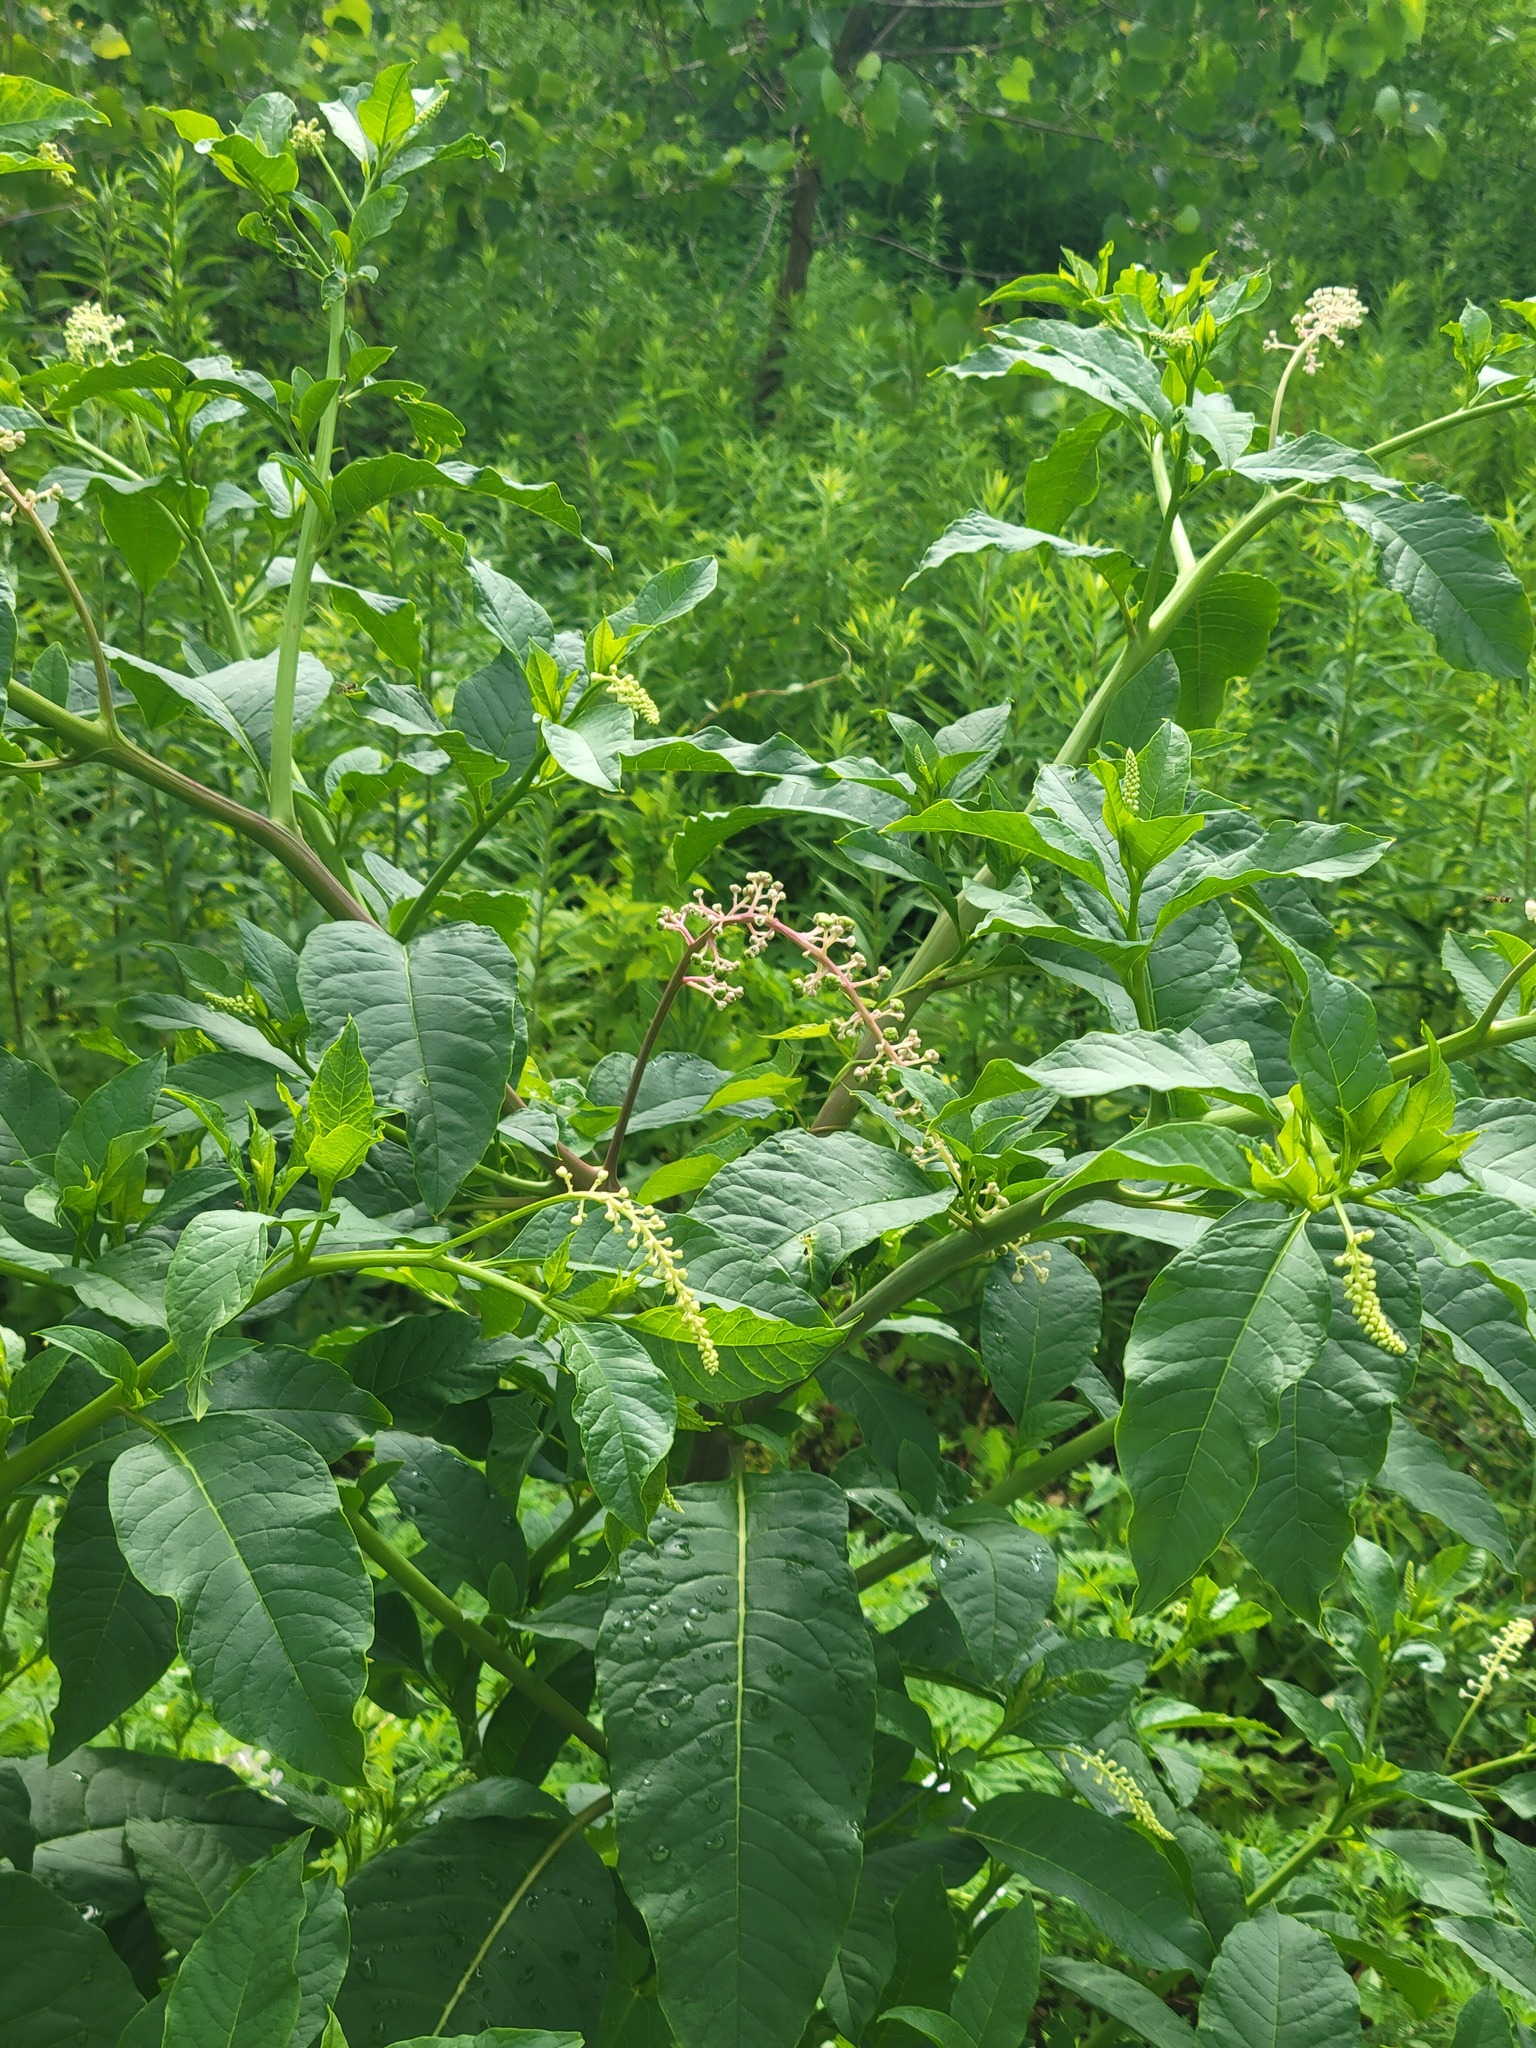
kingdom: Plantae
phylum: Tracheophyta
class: Magnoliopsida
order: Caryophyllales
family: Phytolaccaceae
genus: Phytolacca
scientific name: Phytolacca americana
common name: American pokeweed
